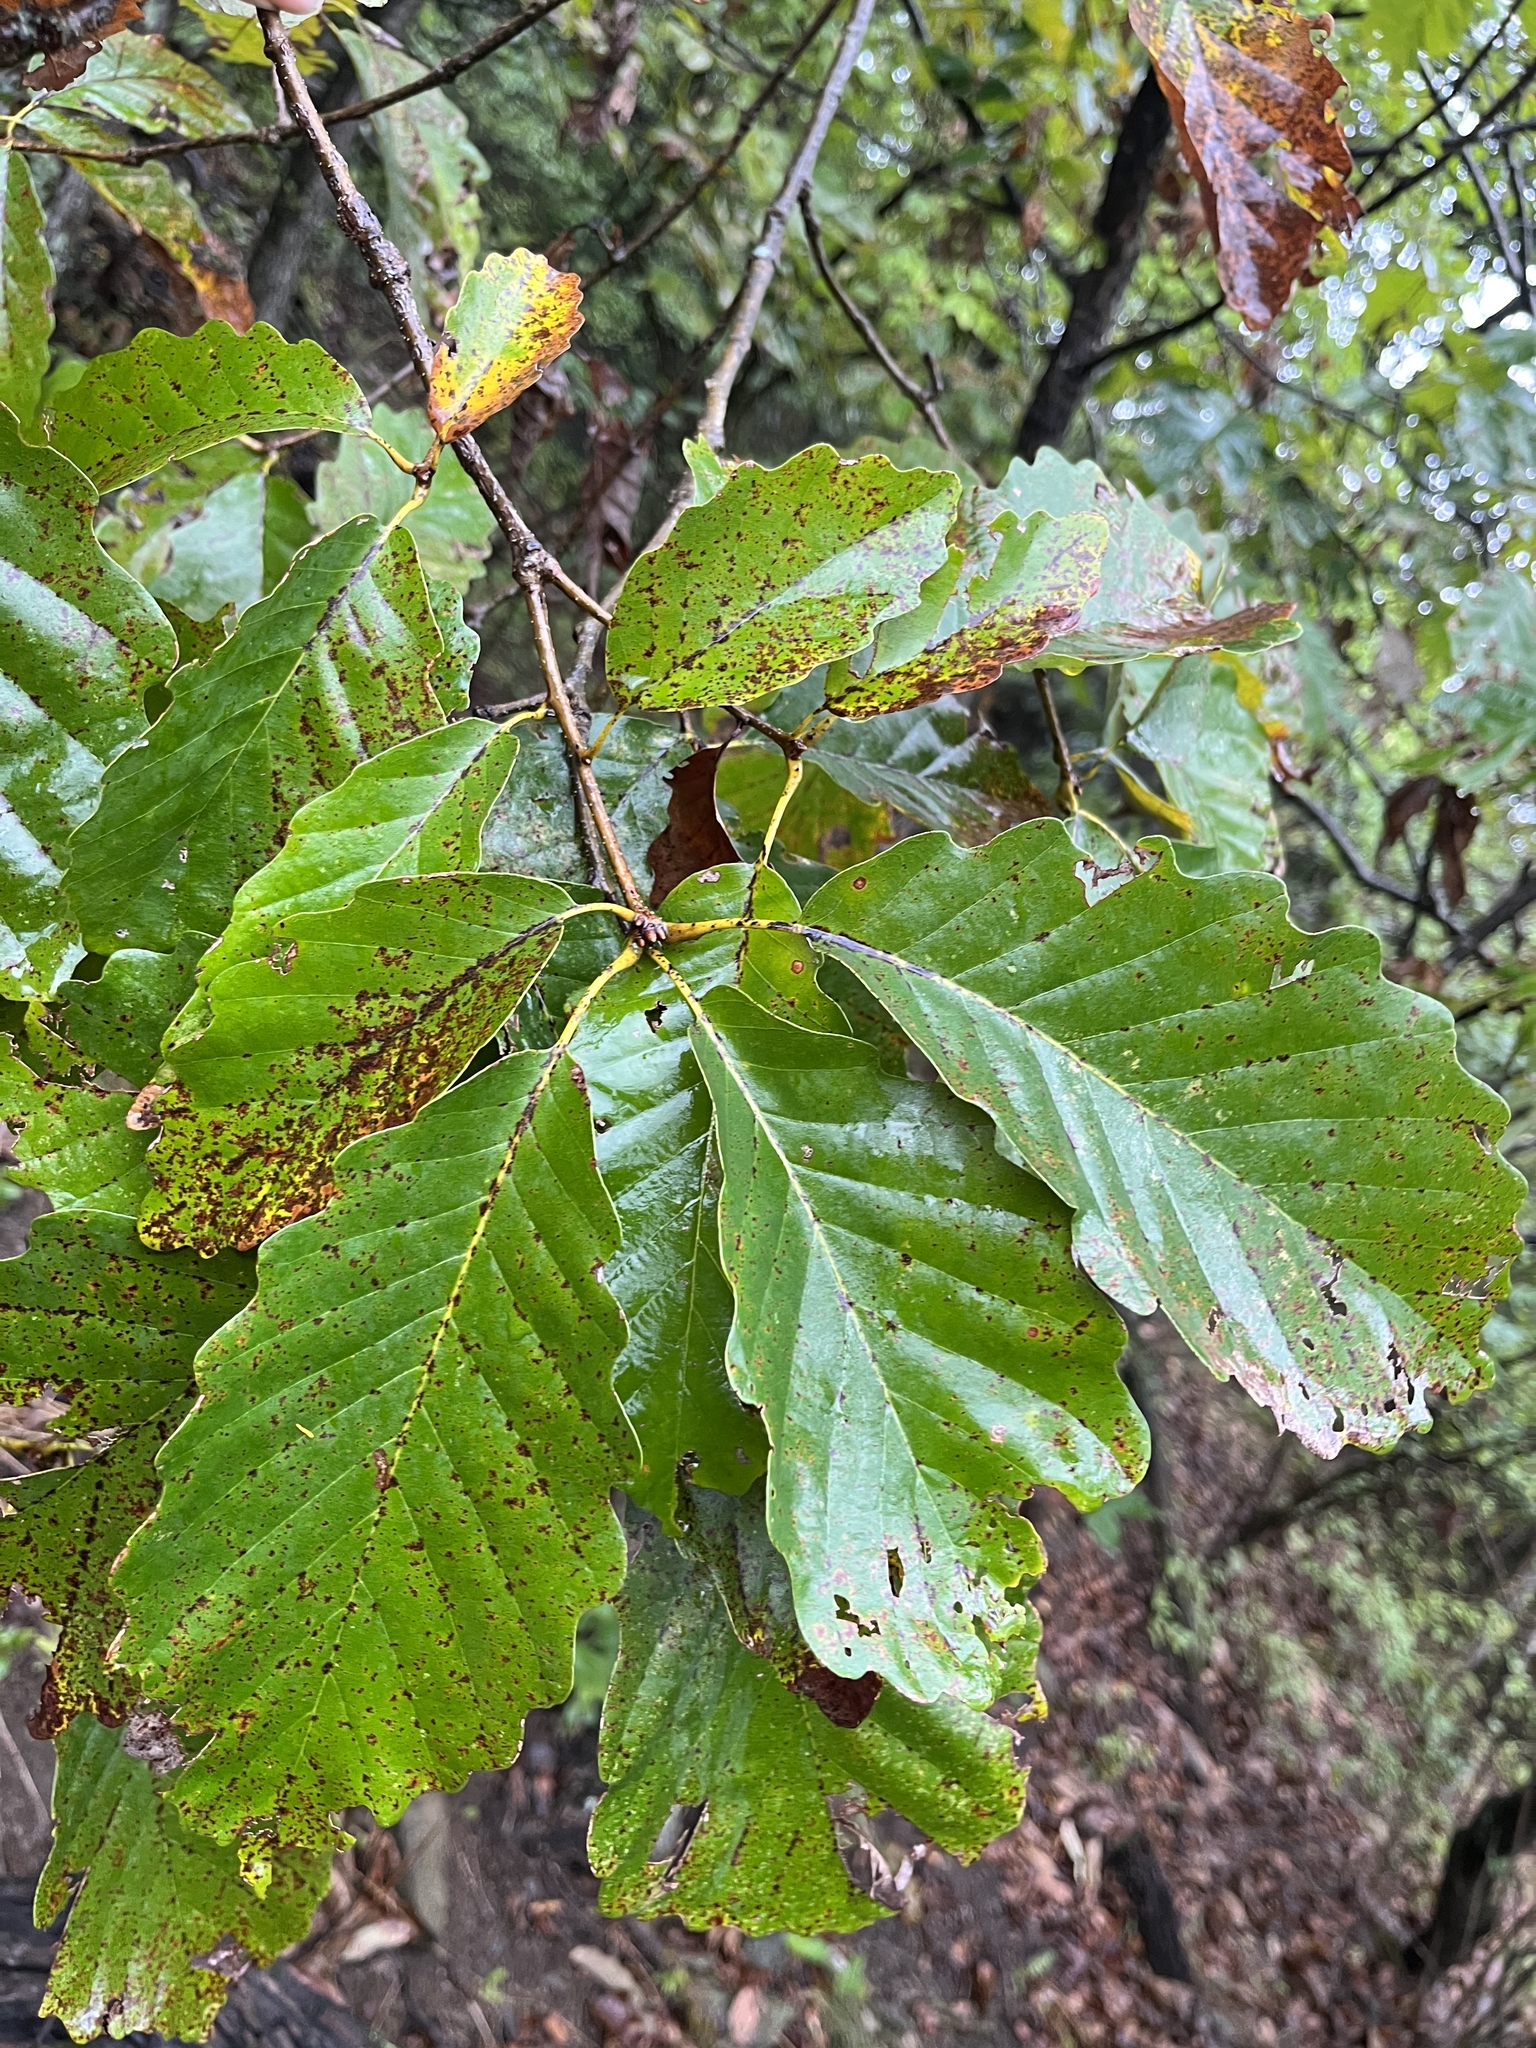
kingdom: Plantae
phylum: Tracheophyta
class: Magnoliopsida
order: Fagales
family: Fagaceae
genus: Quercus
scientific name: Quercus montana
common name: Chestnut oak
